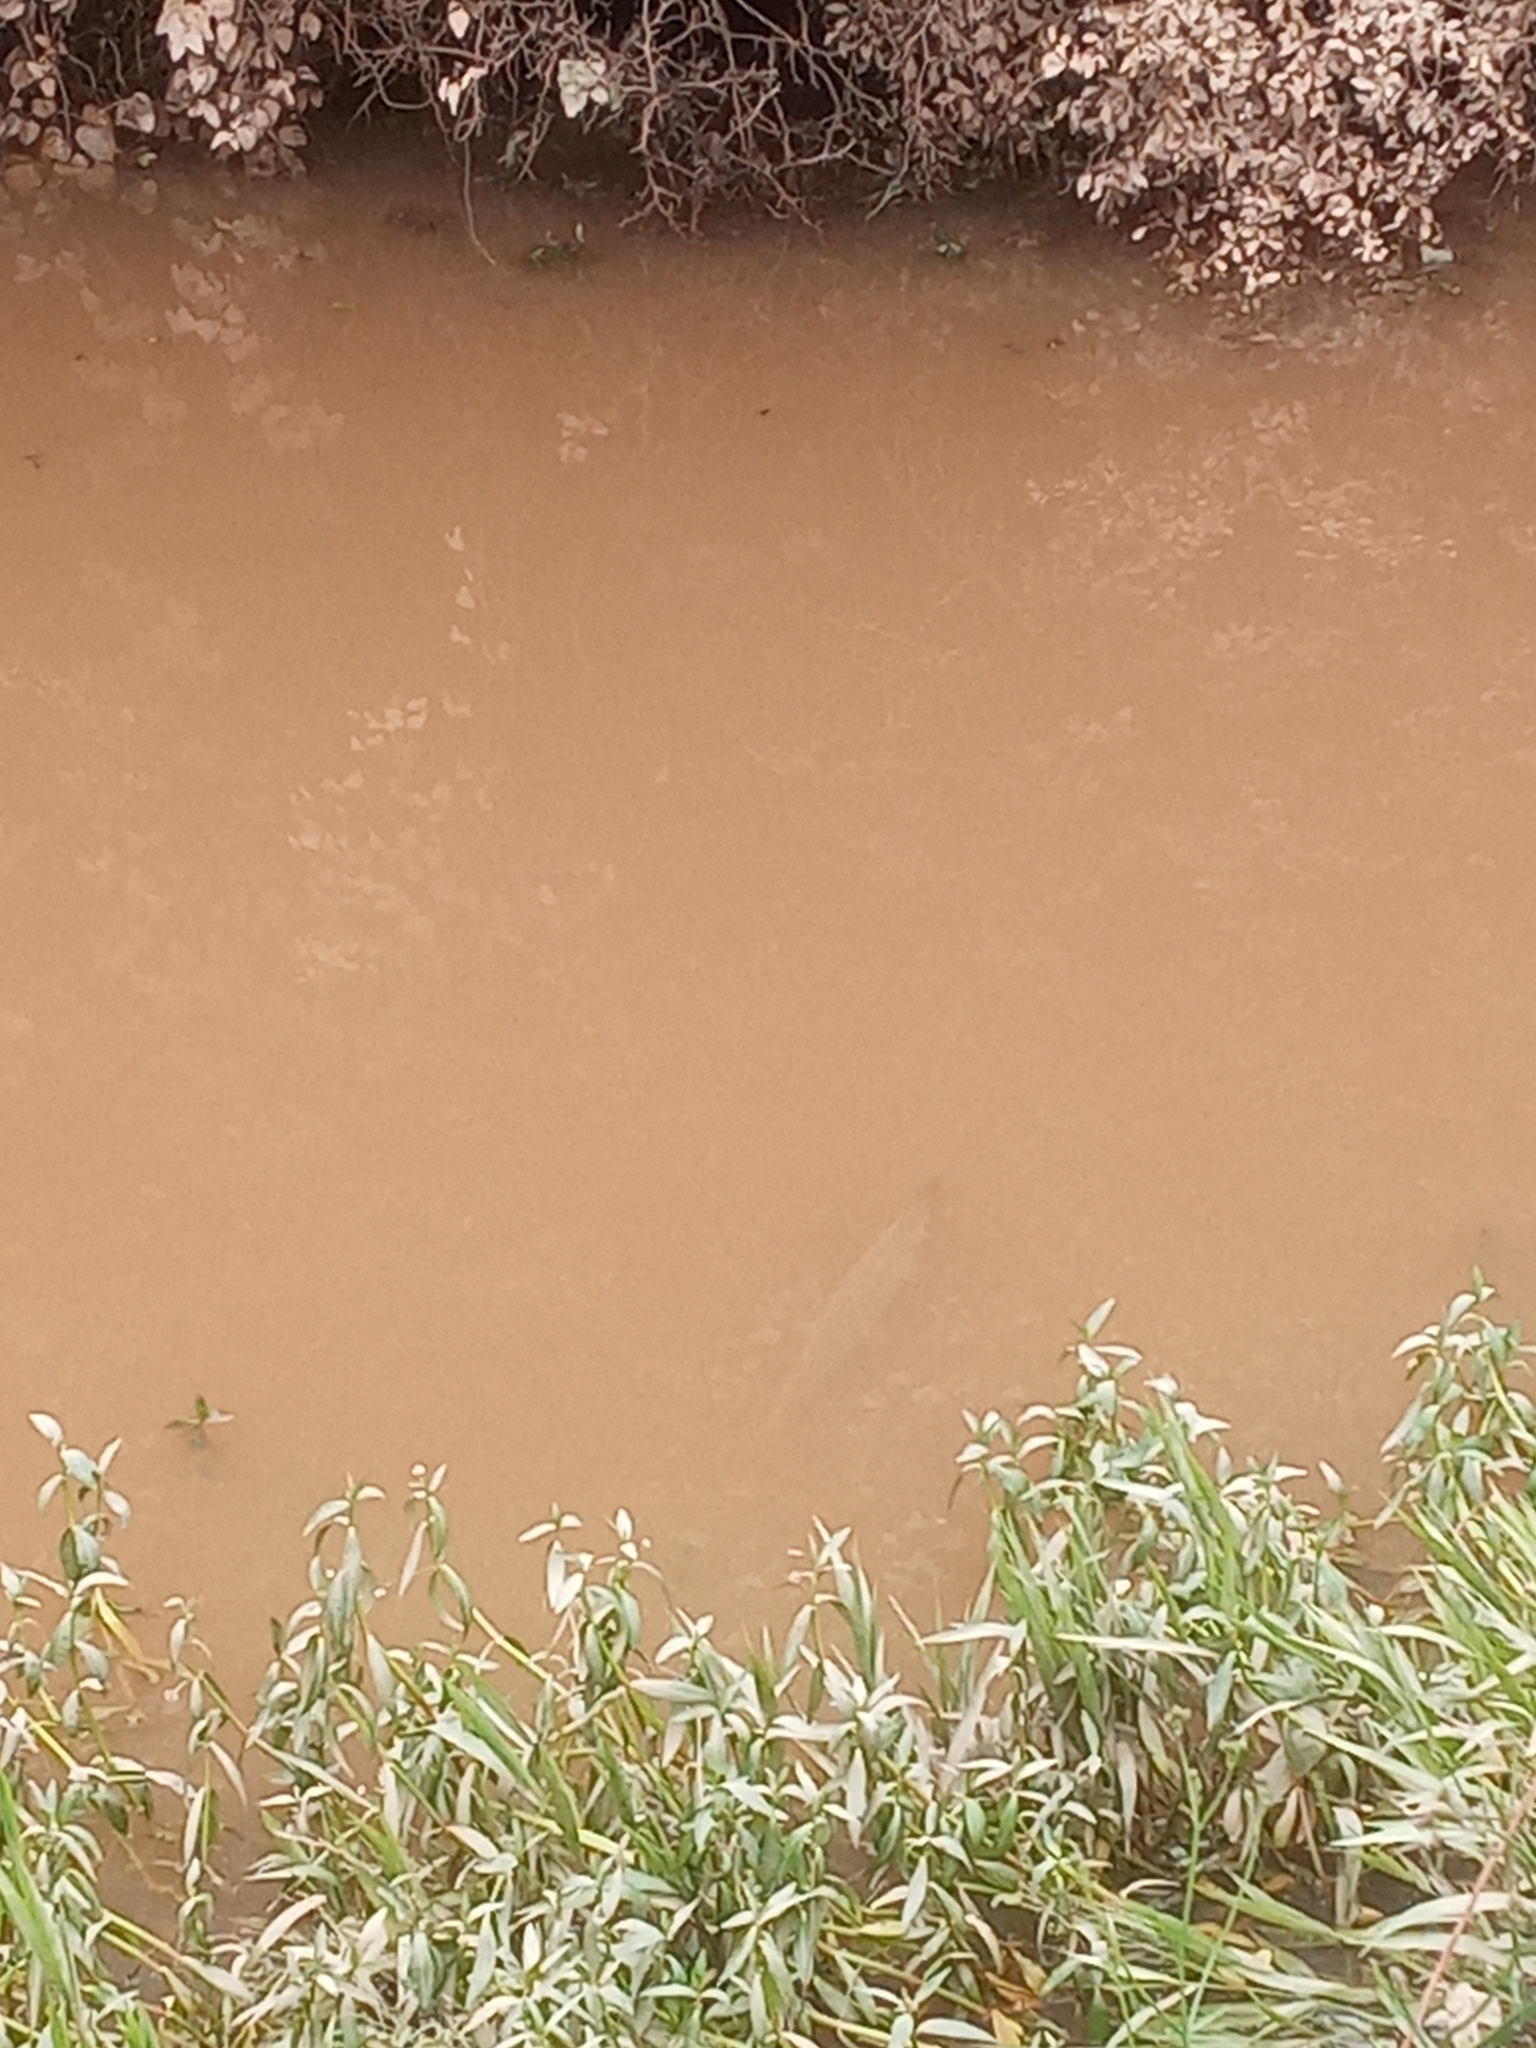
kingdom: Animalia
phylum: Chordata
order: Lepisosteiformes
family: Lepisosteidae
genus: Atractosteus
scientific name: Atractosteus spatula
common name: Alligator gar
